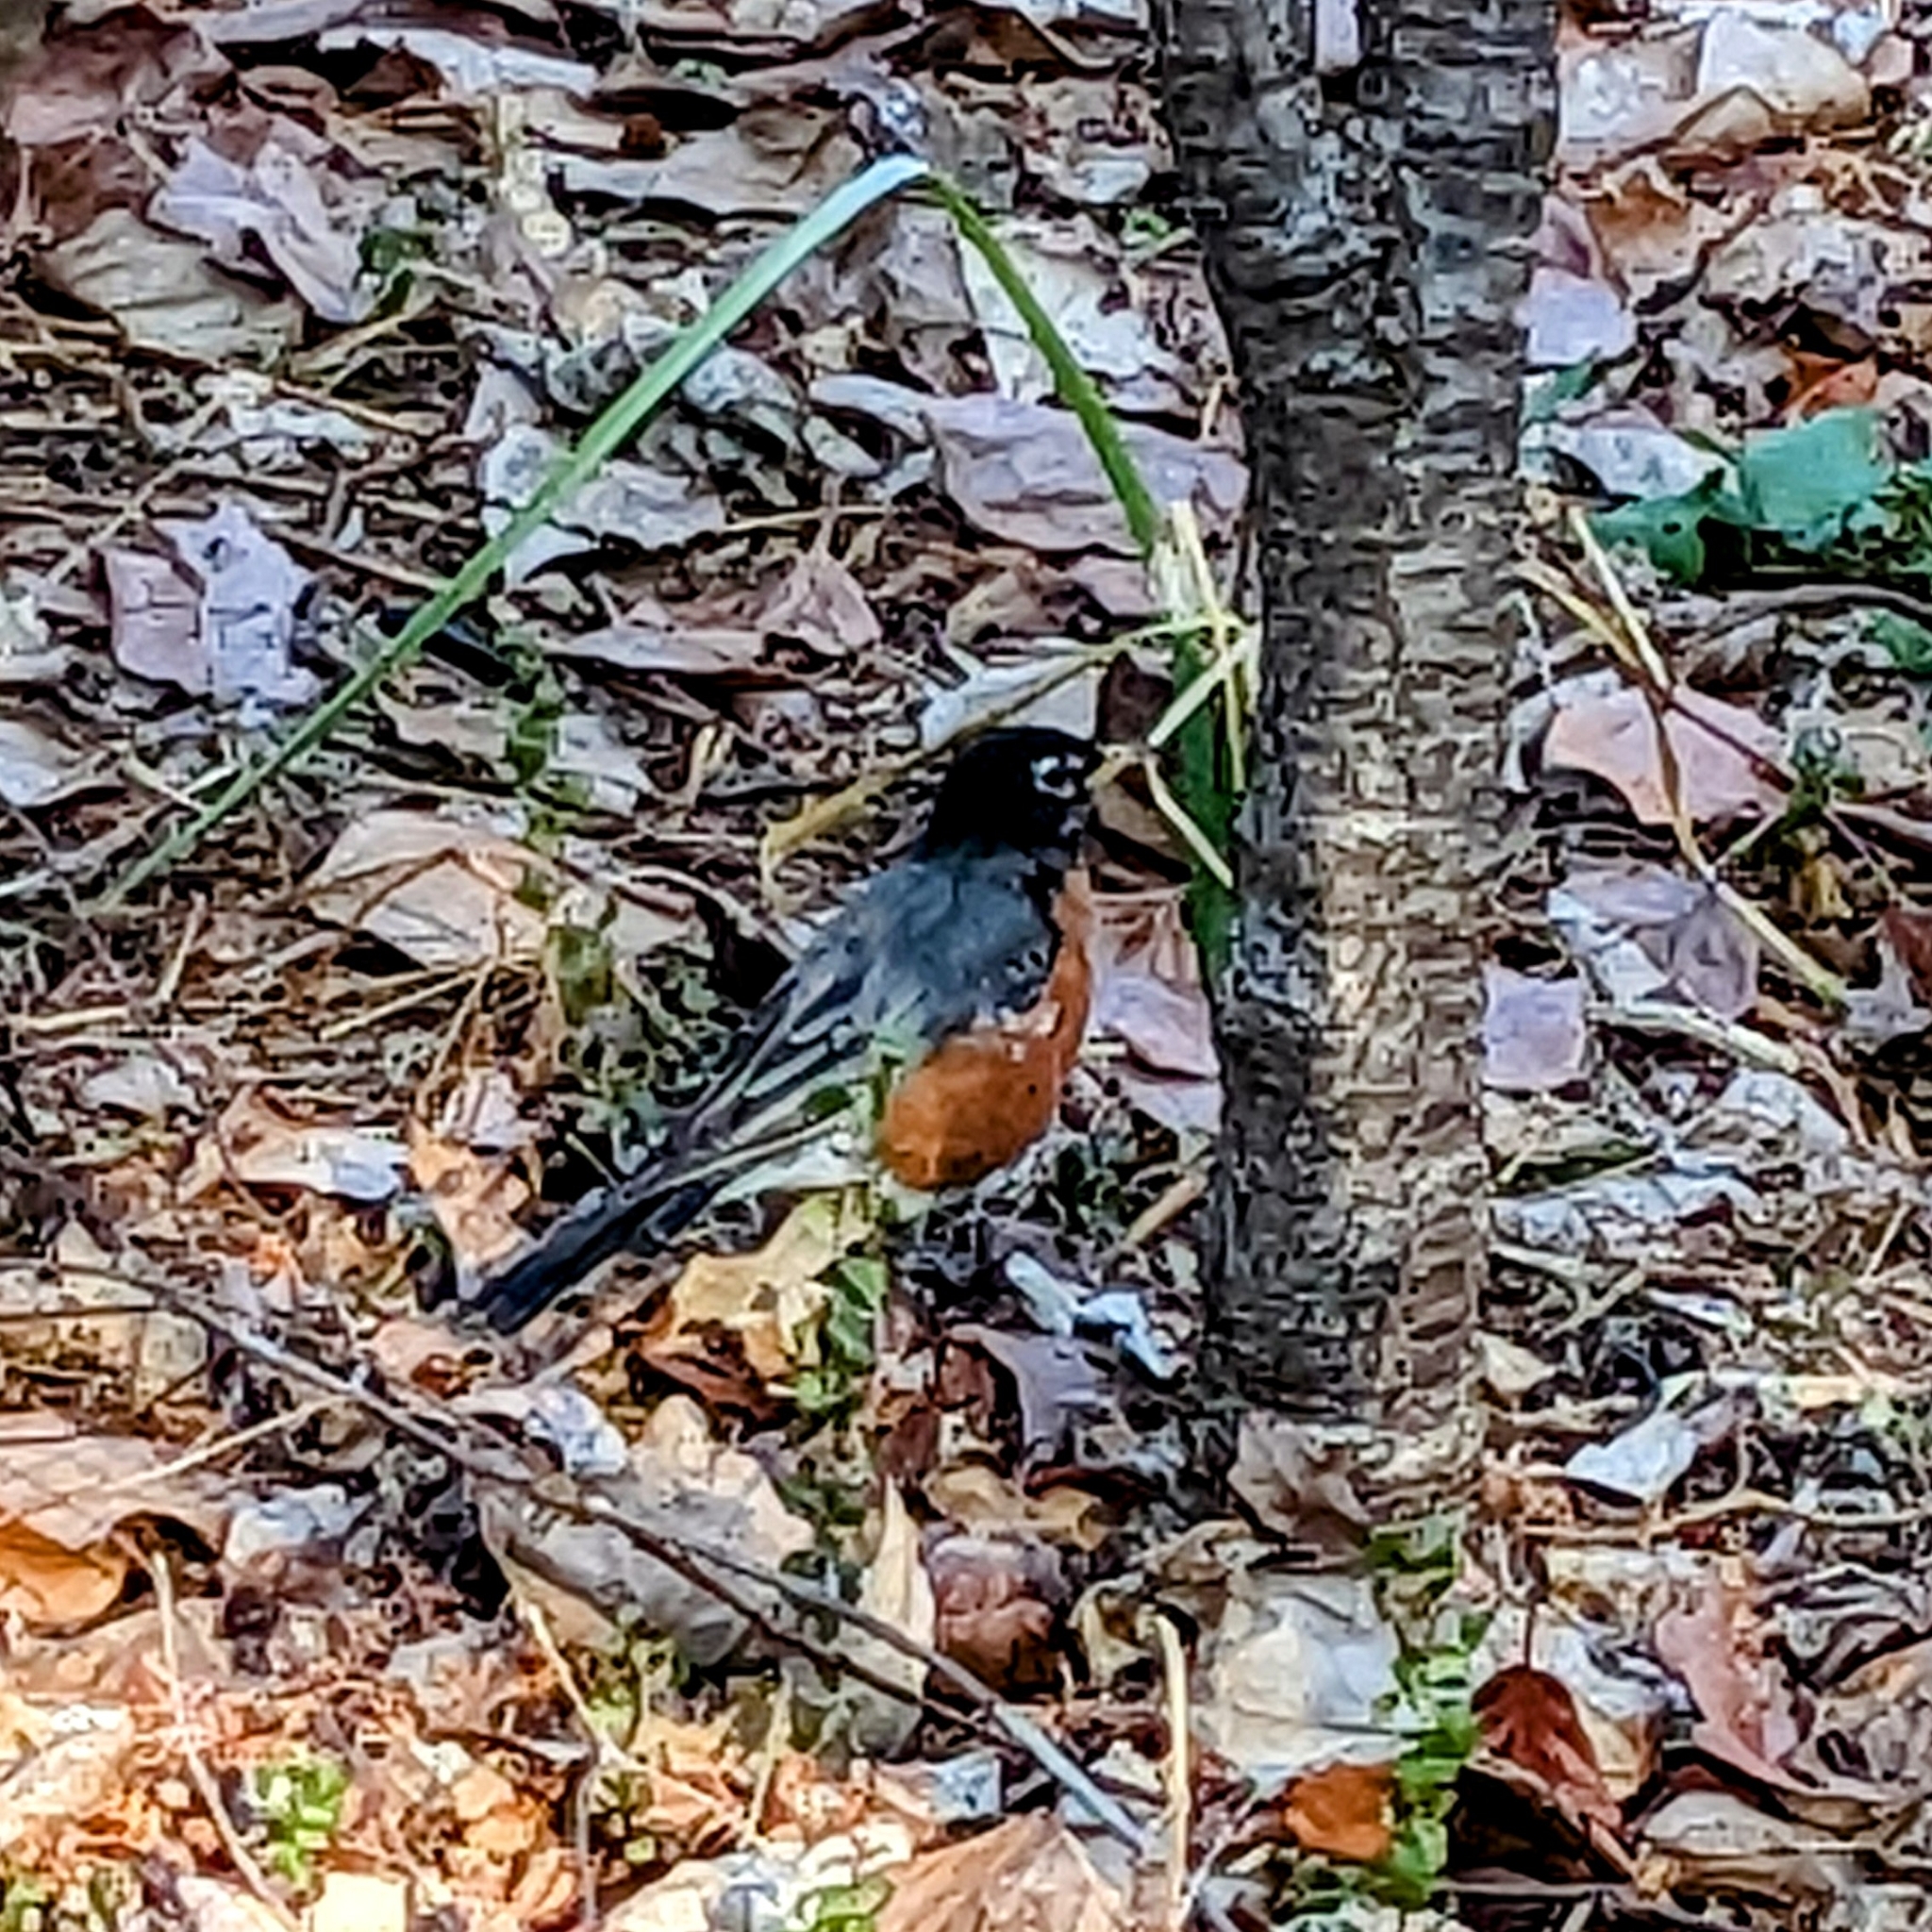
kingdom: Animalia
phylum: Chordata
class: Aves
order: Passeriformes
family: Turdidae
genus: Turdus
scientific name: Turdus migratorius
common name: American robin
